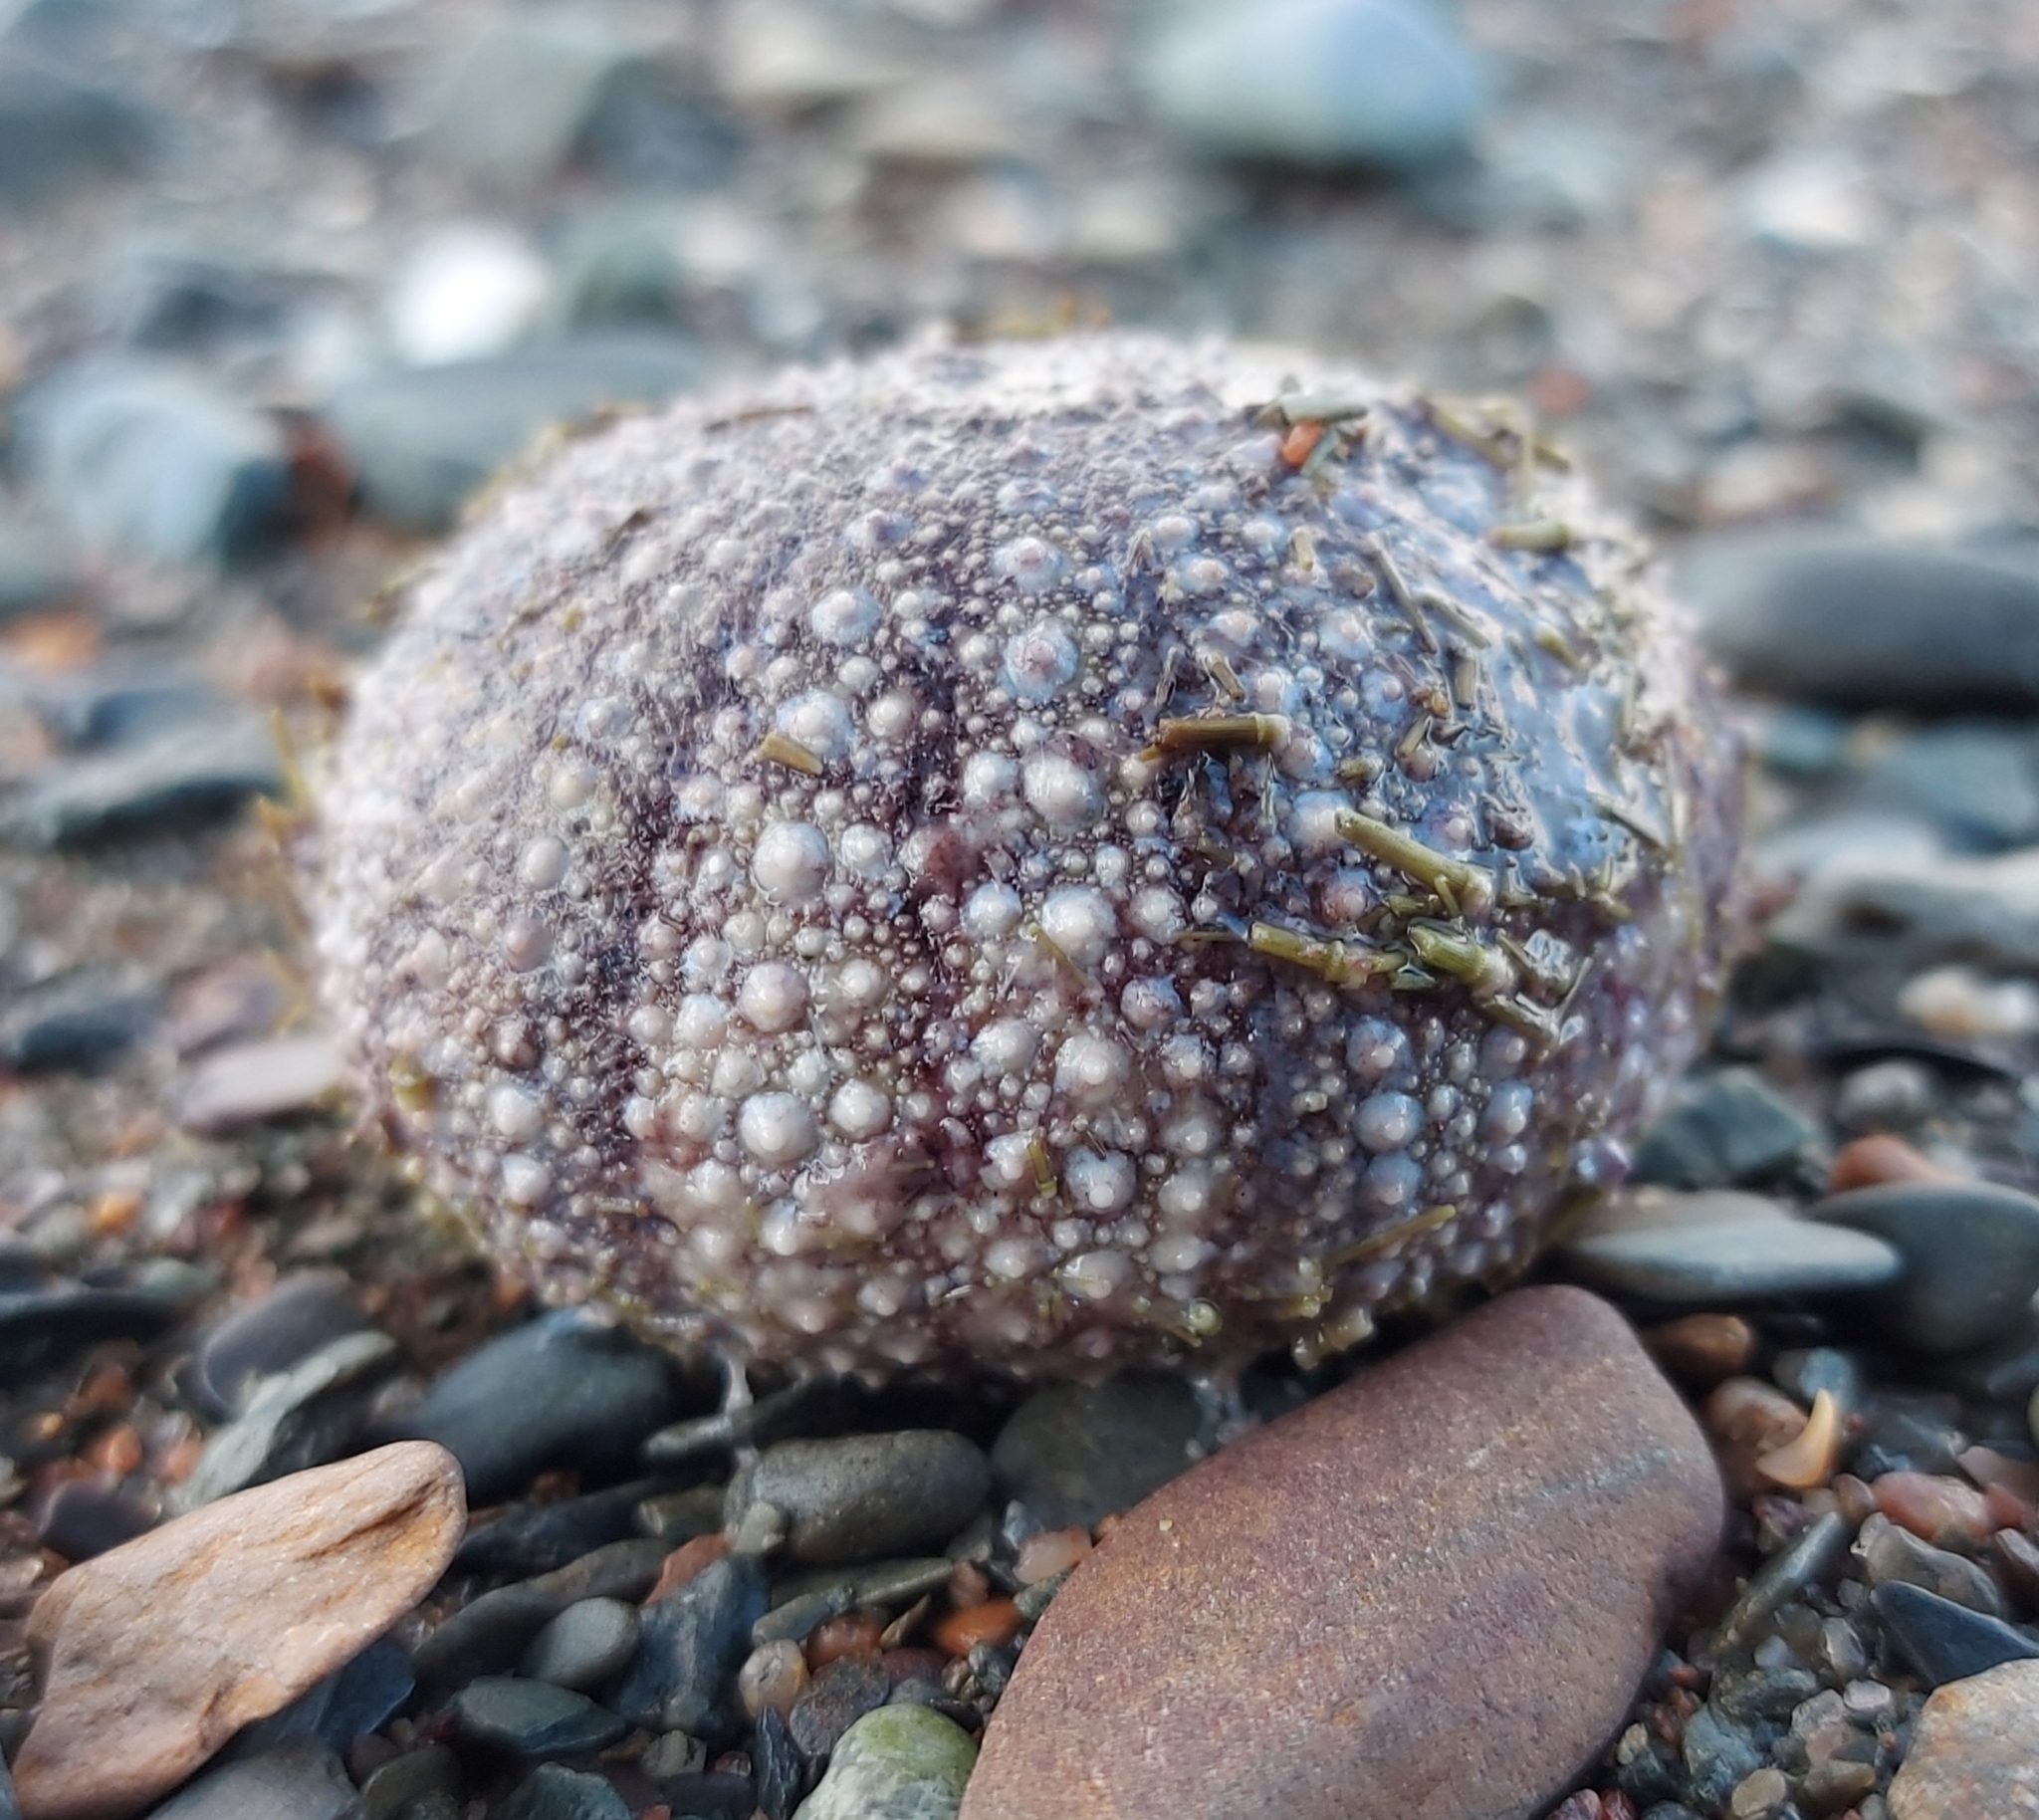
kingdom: Animalia
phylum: Echinodermata
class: Echinoidea
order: Camarodonta
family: Strongylocentrotidae
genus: Strongylocentrotus
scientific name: Strongylocentrotus droebachiensis
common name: Northern sea urchin
